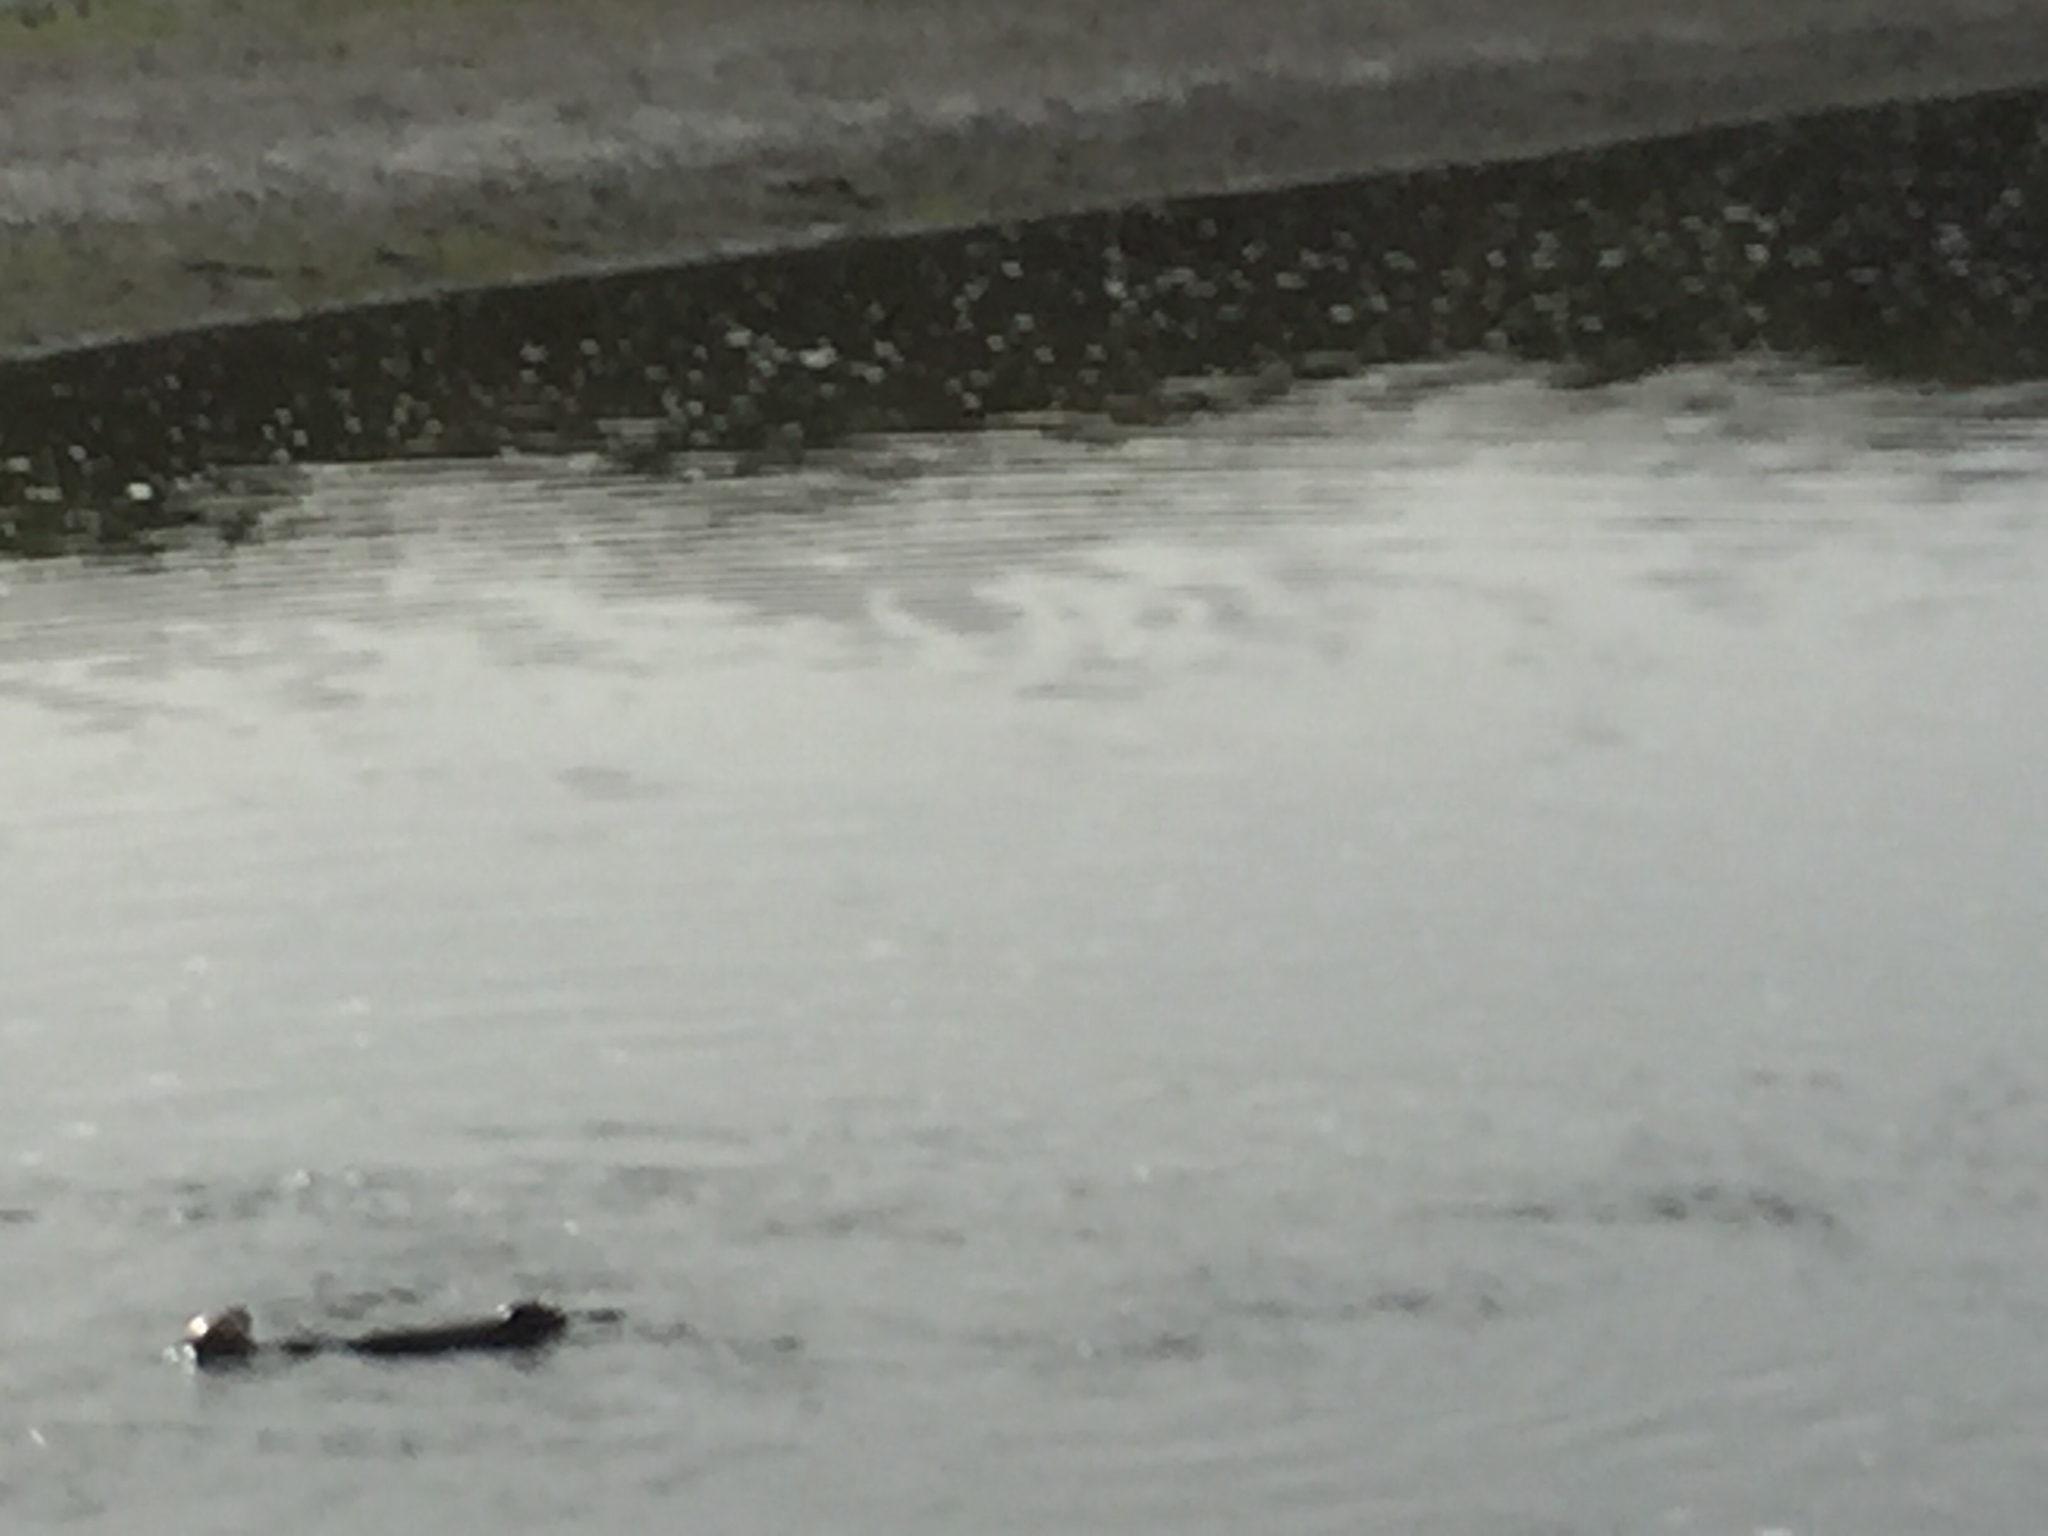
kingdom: Animalia
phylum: Chordata
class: Mammalia
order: Carnivora
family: Mustelidae
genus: Enhydra
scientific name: Enhydra lutris
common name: Sea otter
